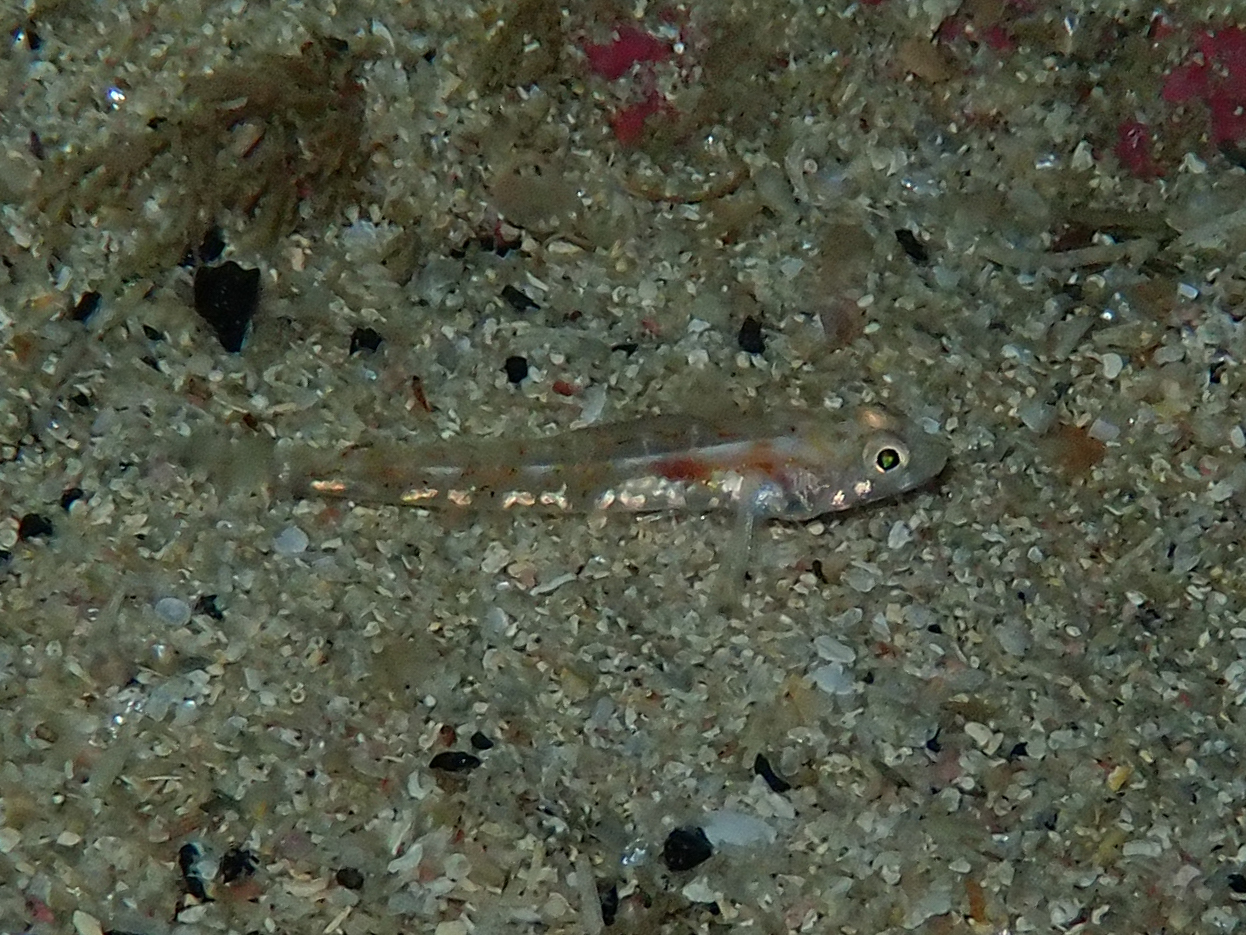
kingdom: Animalia
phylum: Chordata
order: Perciformes
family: Gobiidae
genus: Pomatoschistus
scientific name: Pomatoschistus pictus
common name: Painted goby
